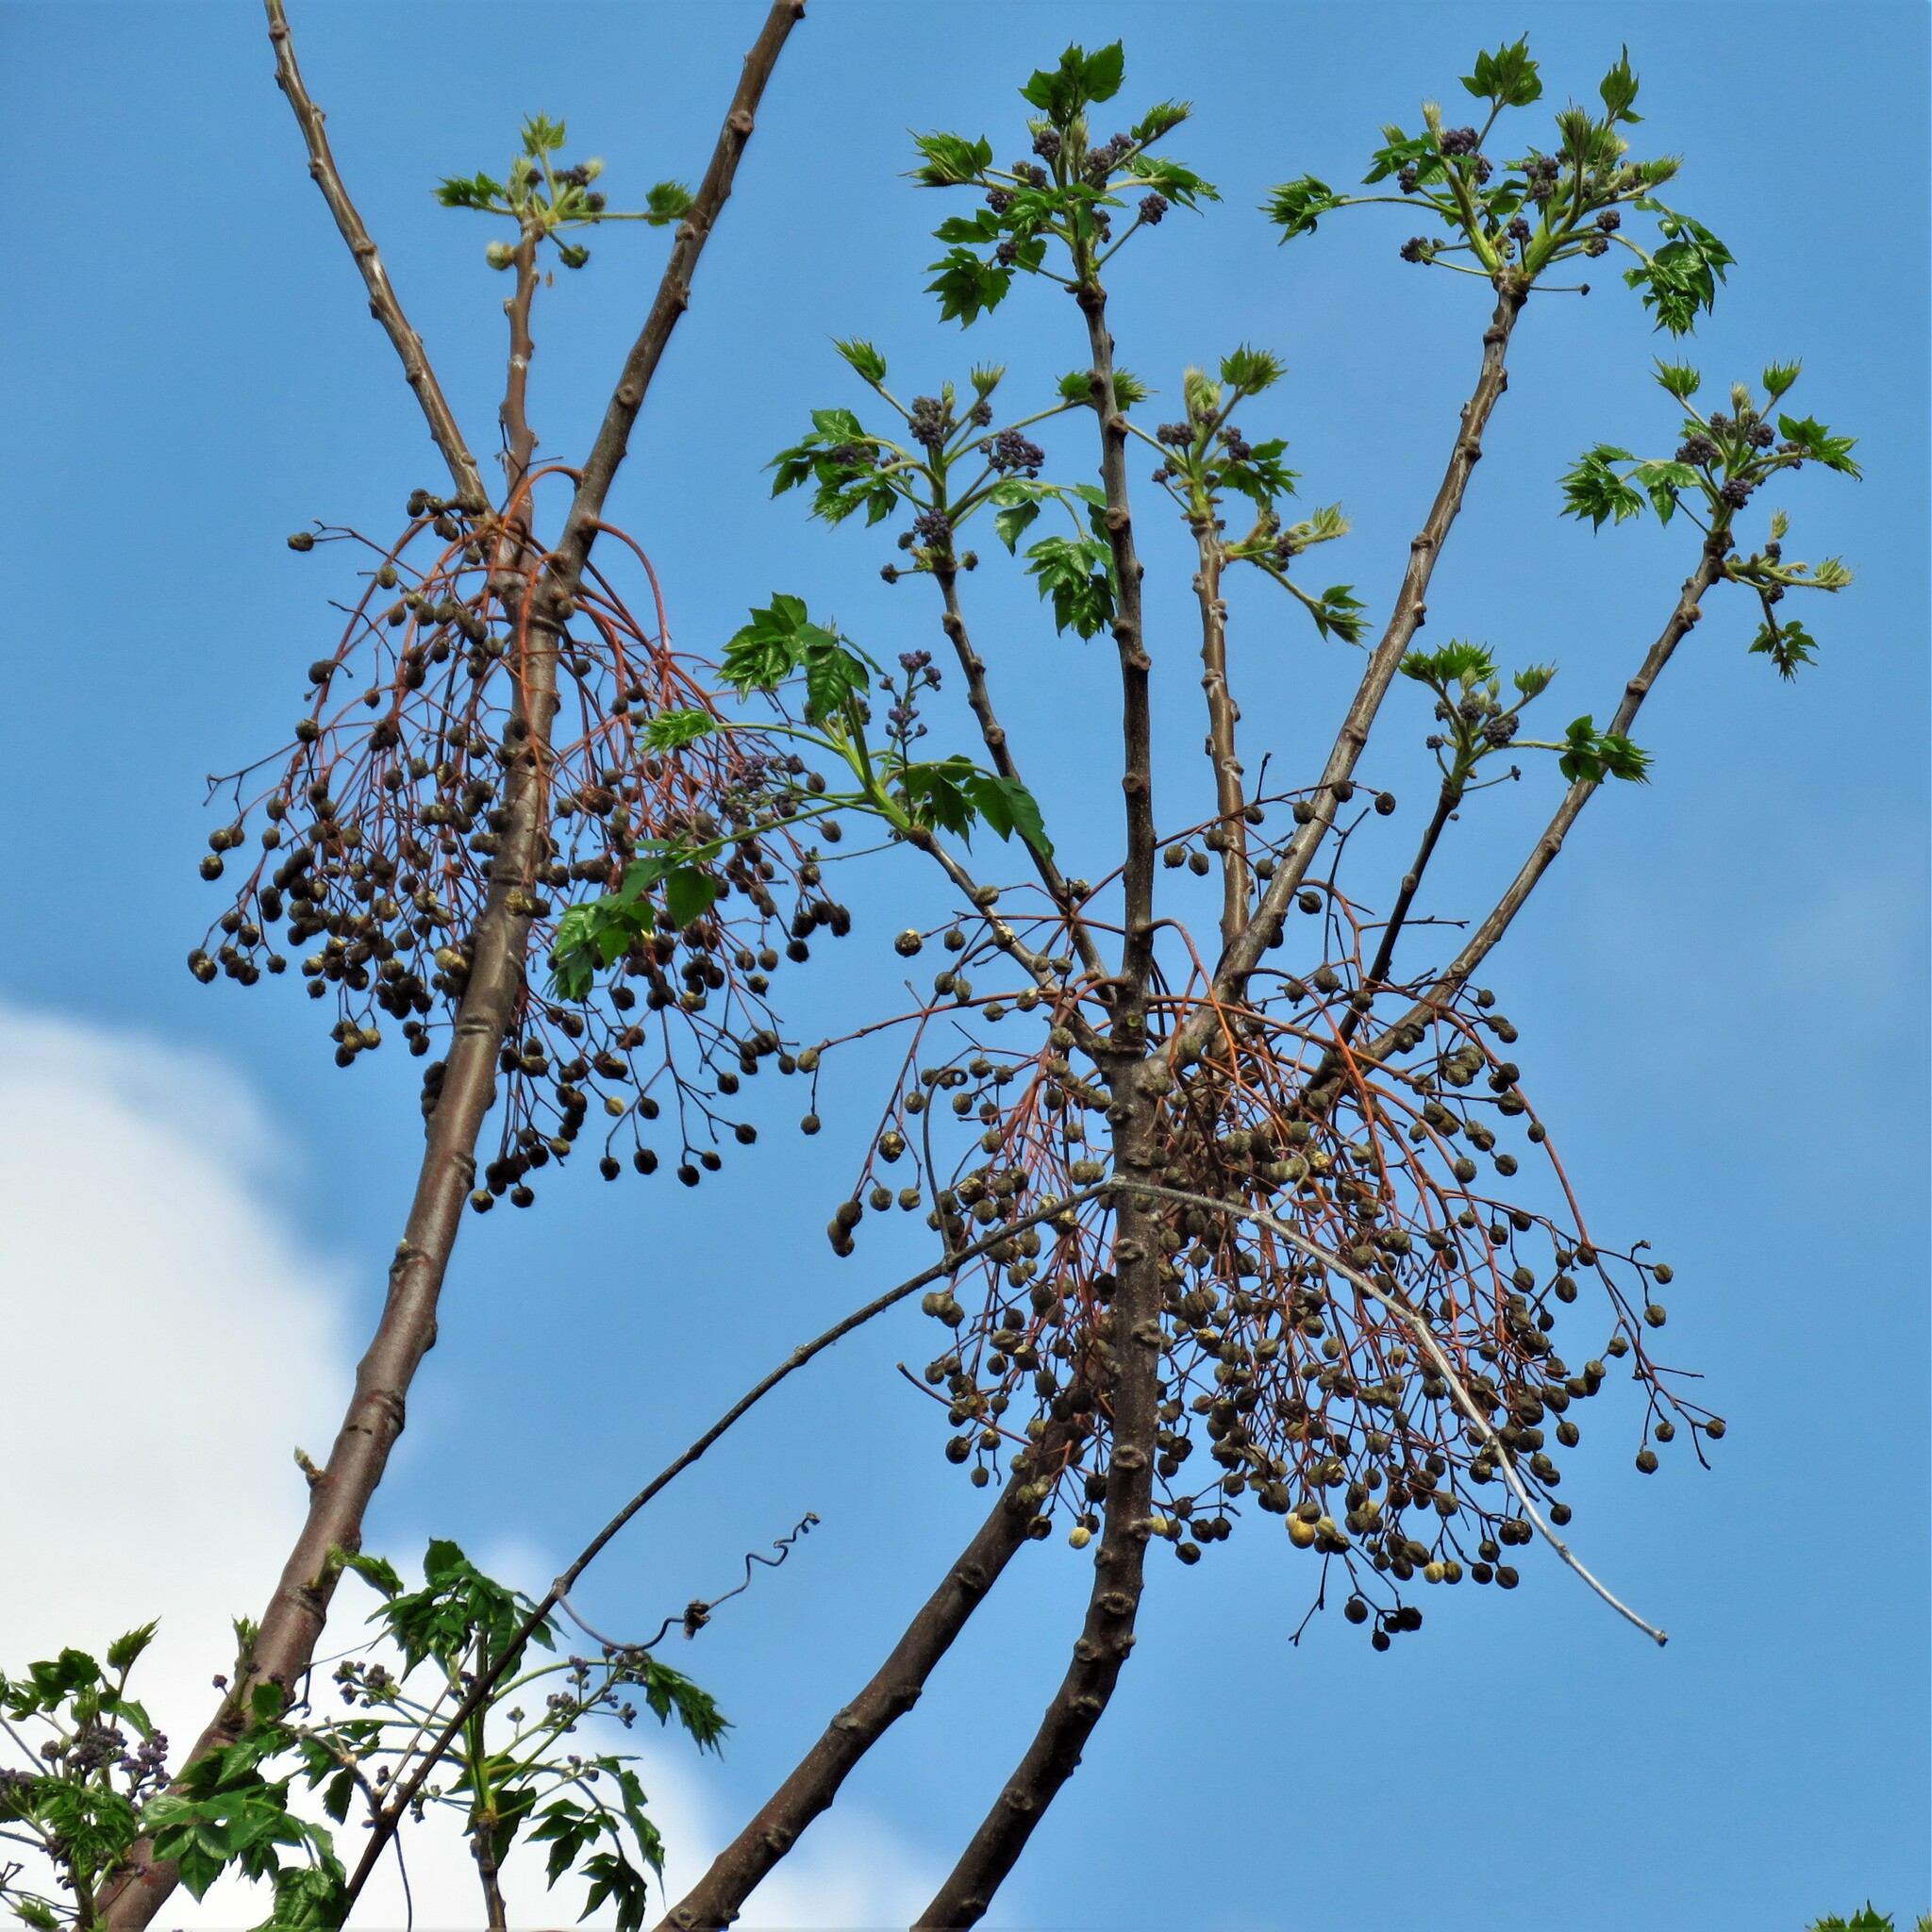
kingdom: Plantae
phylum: Tracheophyta
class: Magnoliopsida
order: Sapindales
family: Meliaceae
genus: Melia
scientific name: Melia azedarach
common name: Chinaberrytree
